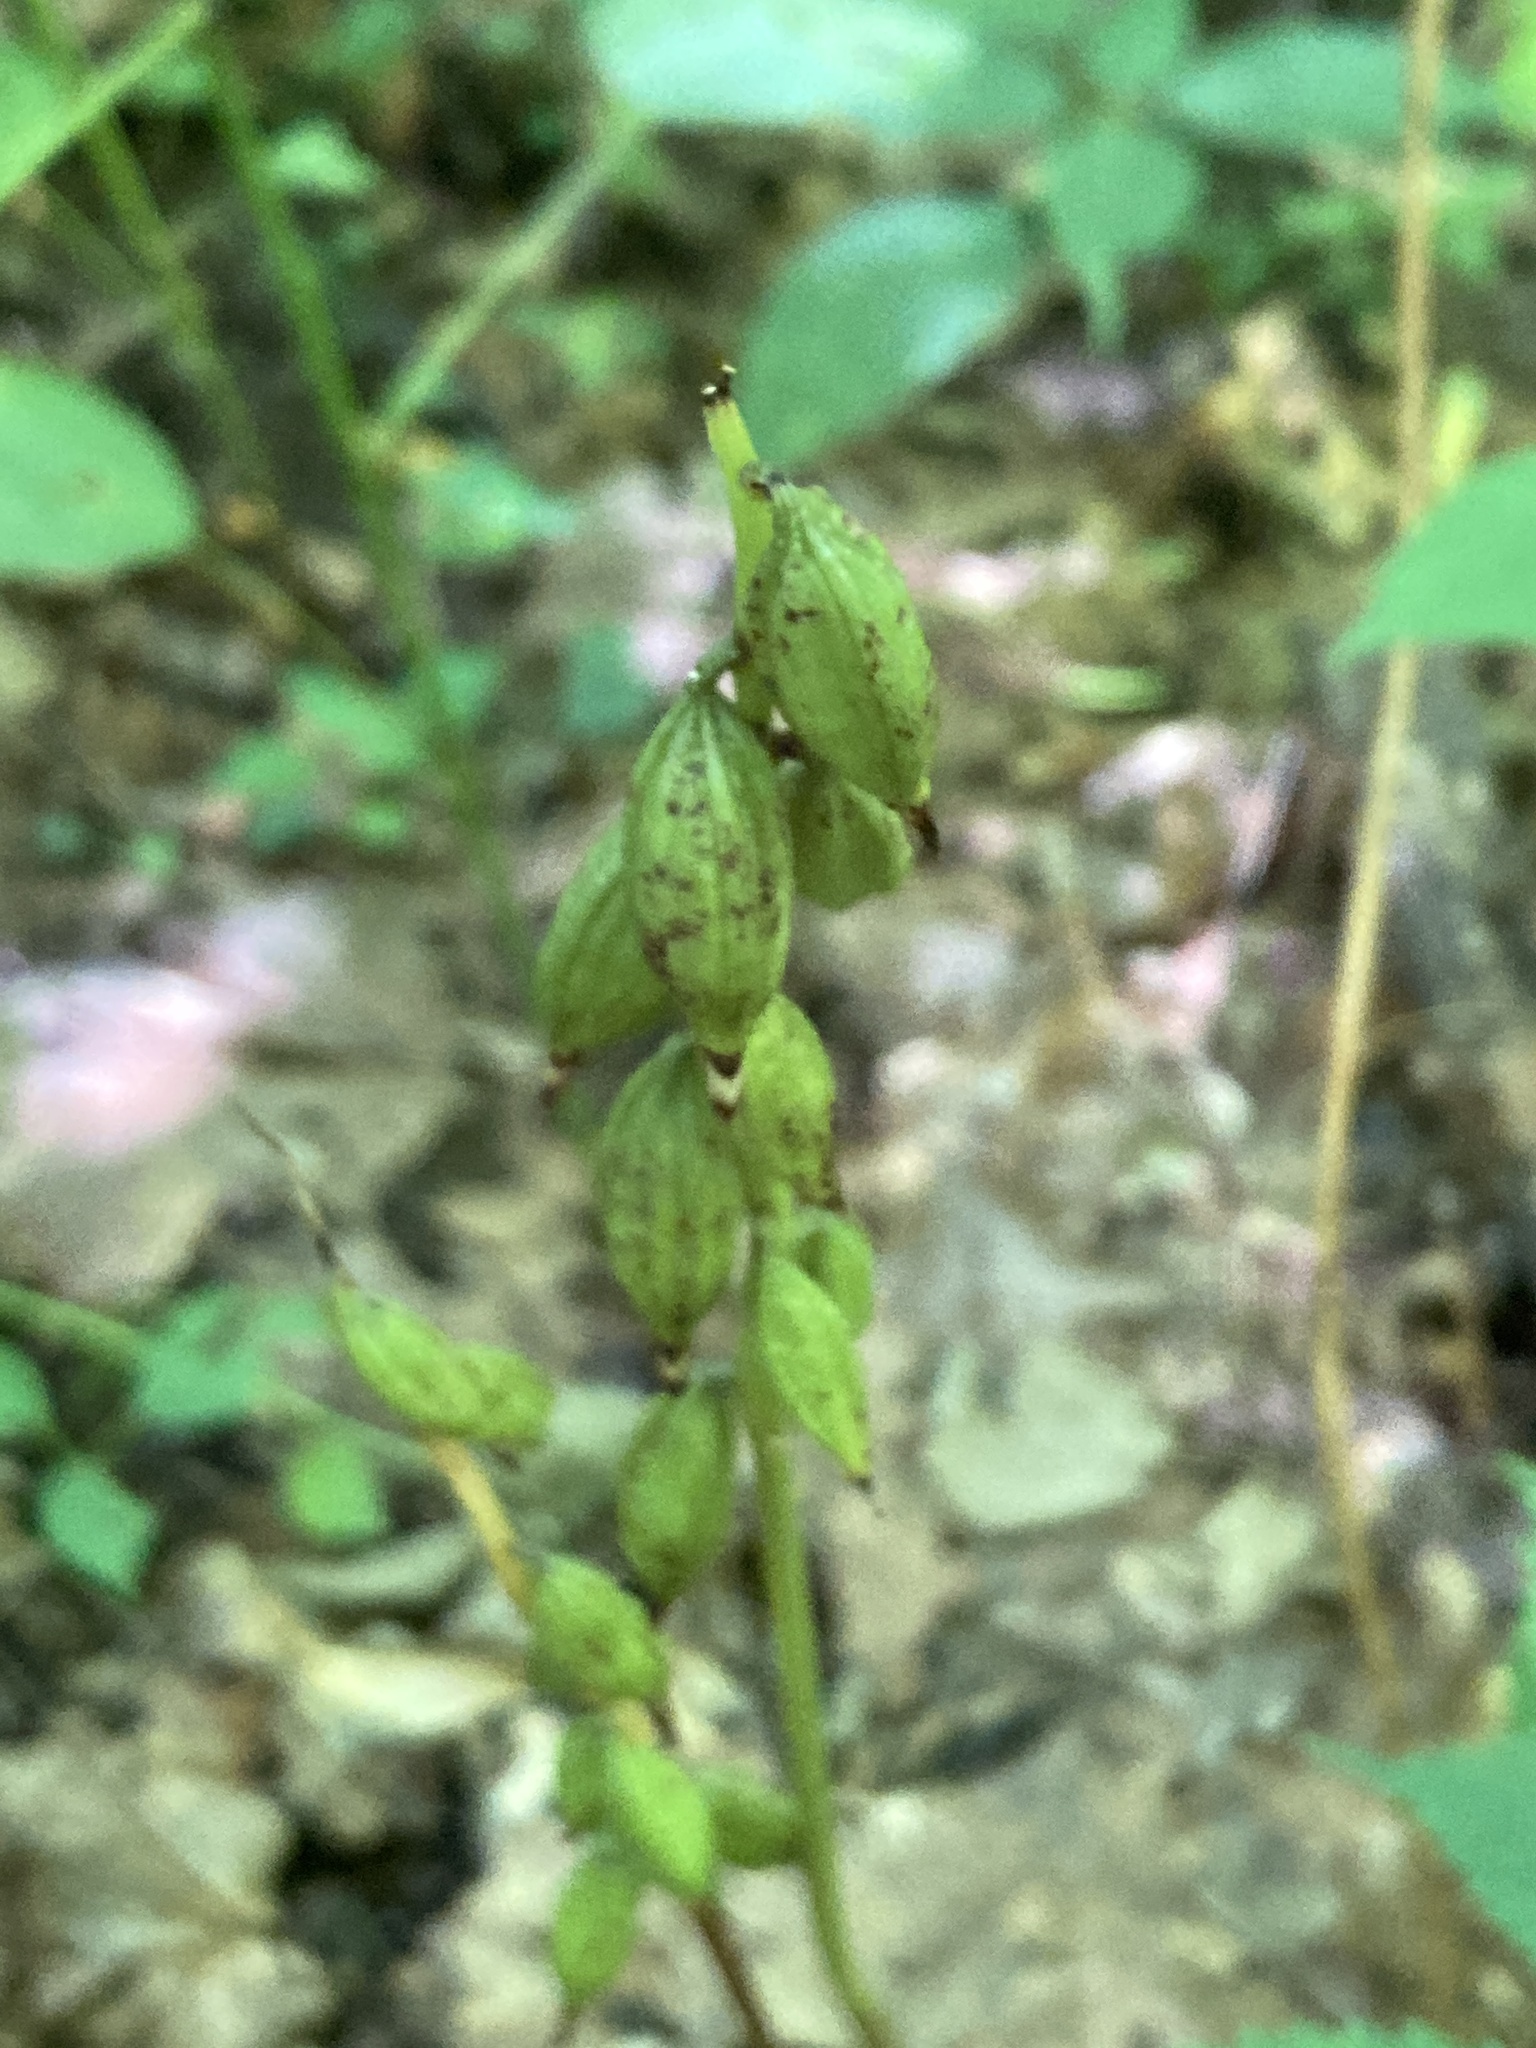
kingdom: Plantae
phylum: Tracheophyta
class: Liliopsida
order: Asparagales
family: Orchidaceae
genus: Aplectrum
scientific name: Aplectrum hyemale
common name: Adam-and-eve
